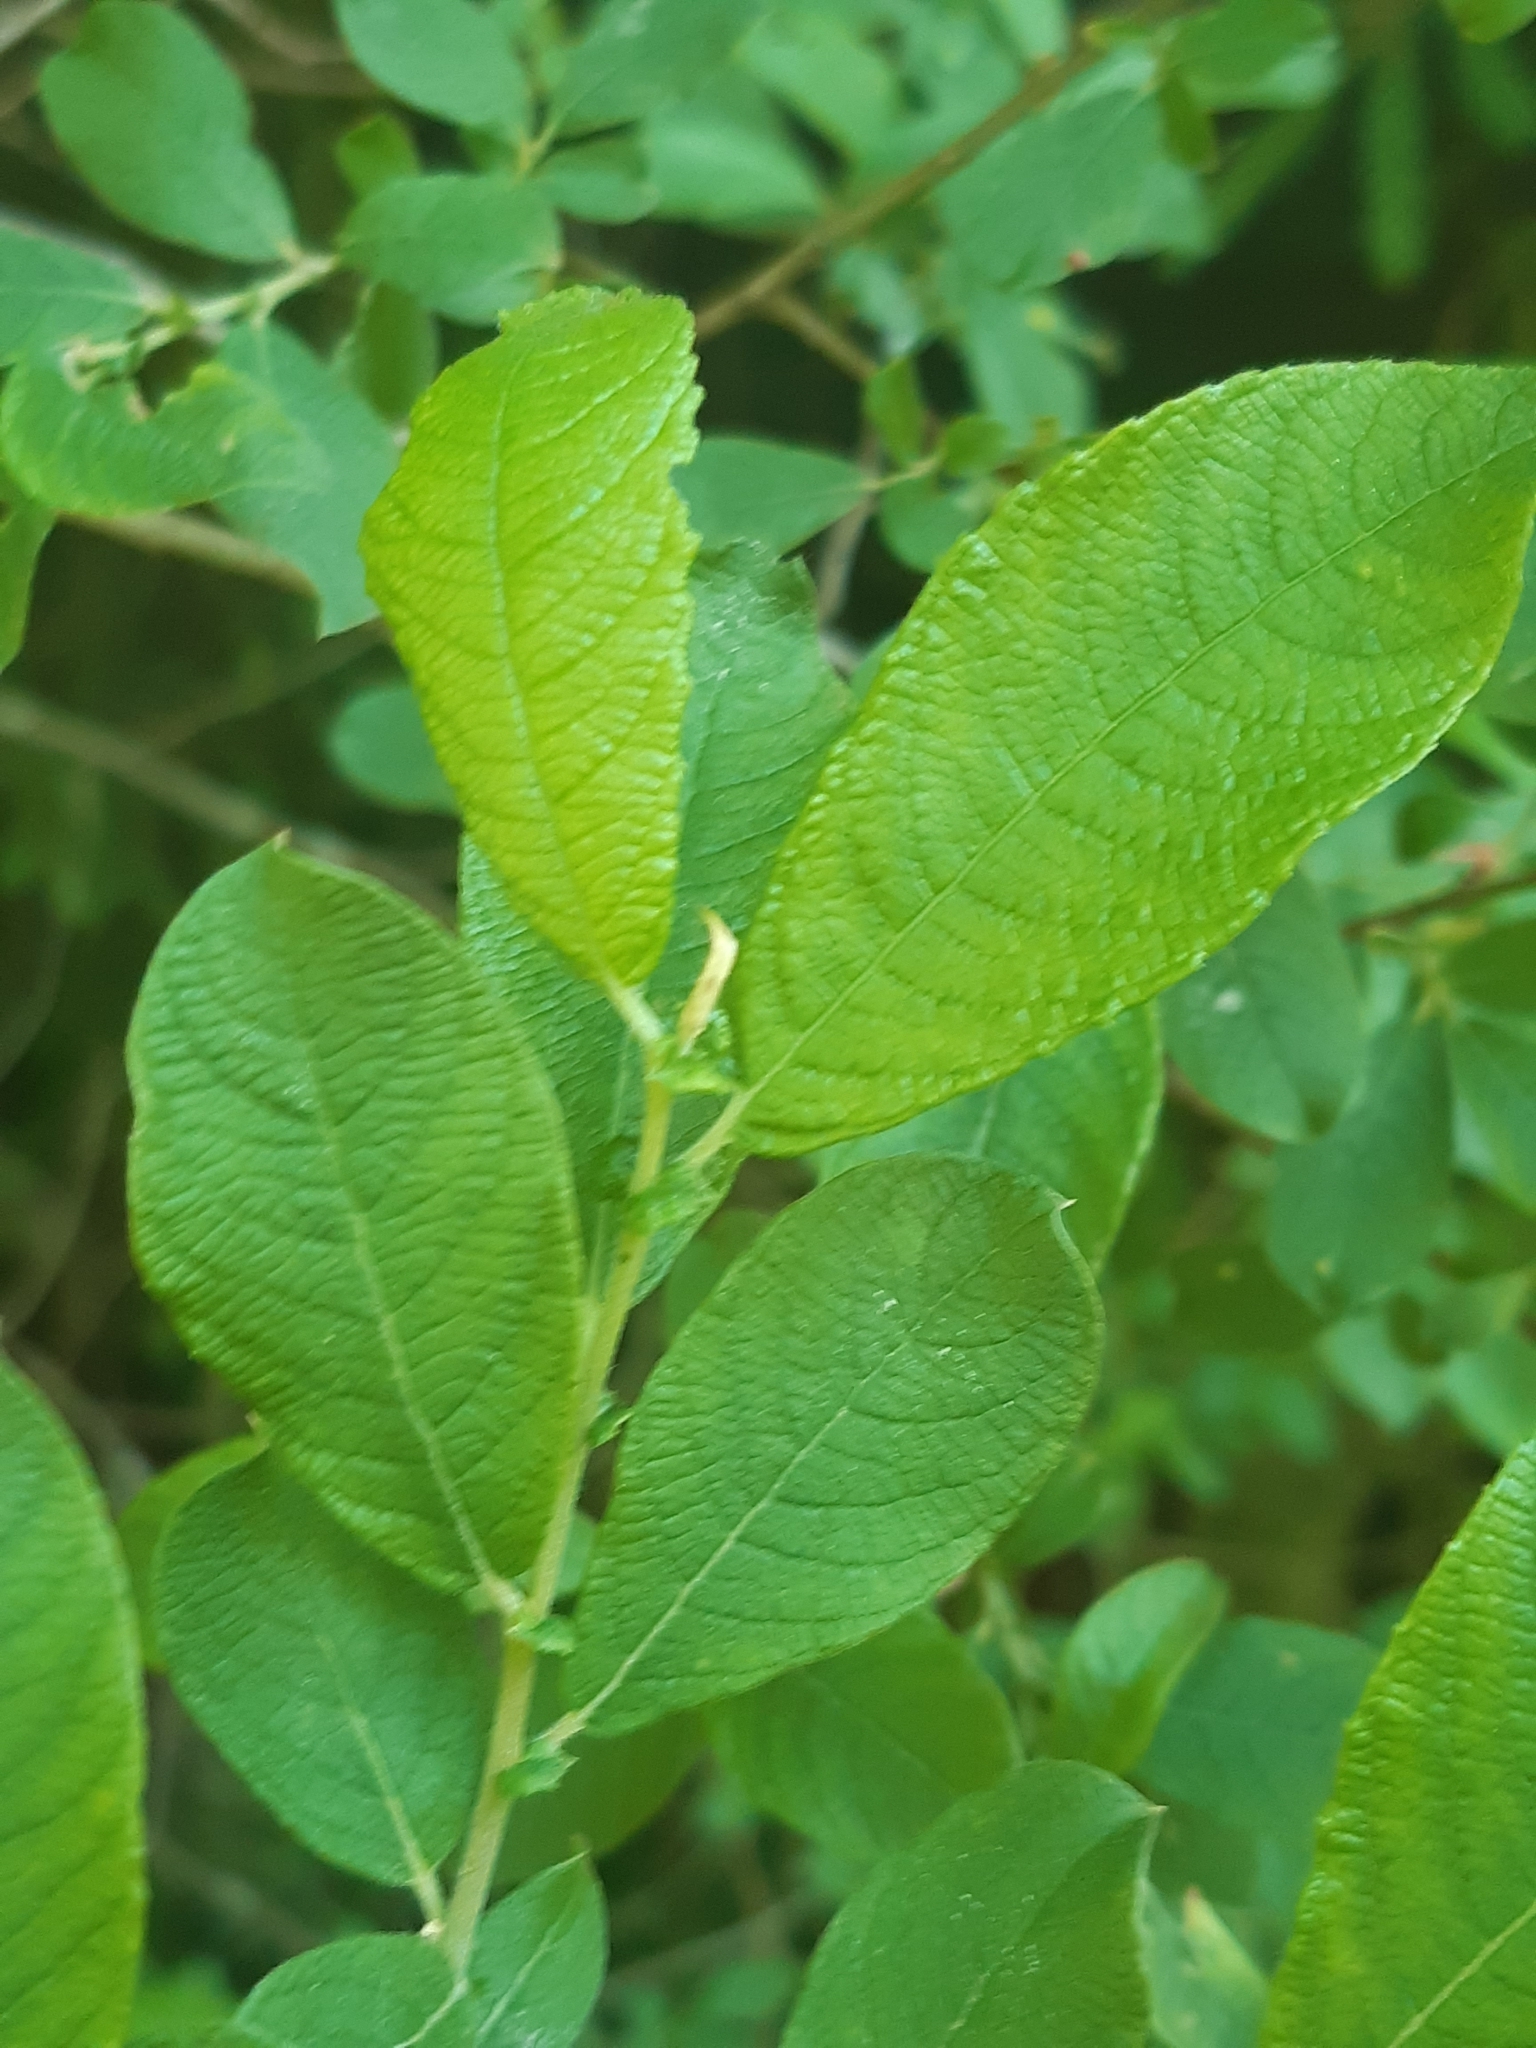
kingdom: Plantae
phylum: Tracheophyta
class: Magnoliopsida
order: Malpighiales
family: Salicaceae
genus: Salix
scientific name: Salix aurita
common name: Eared willow
